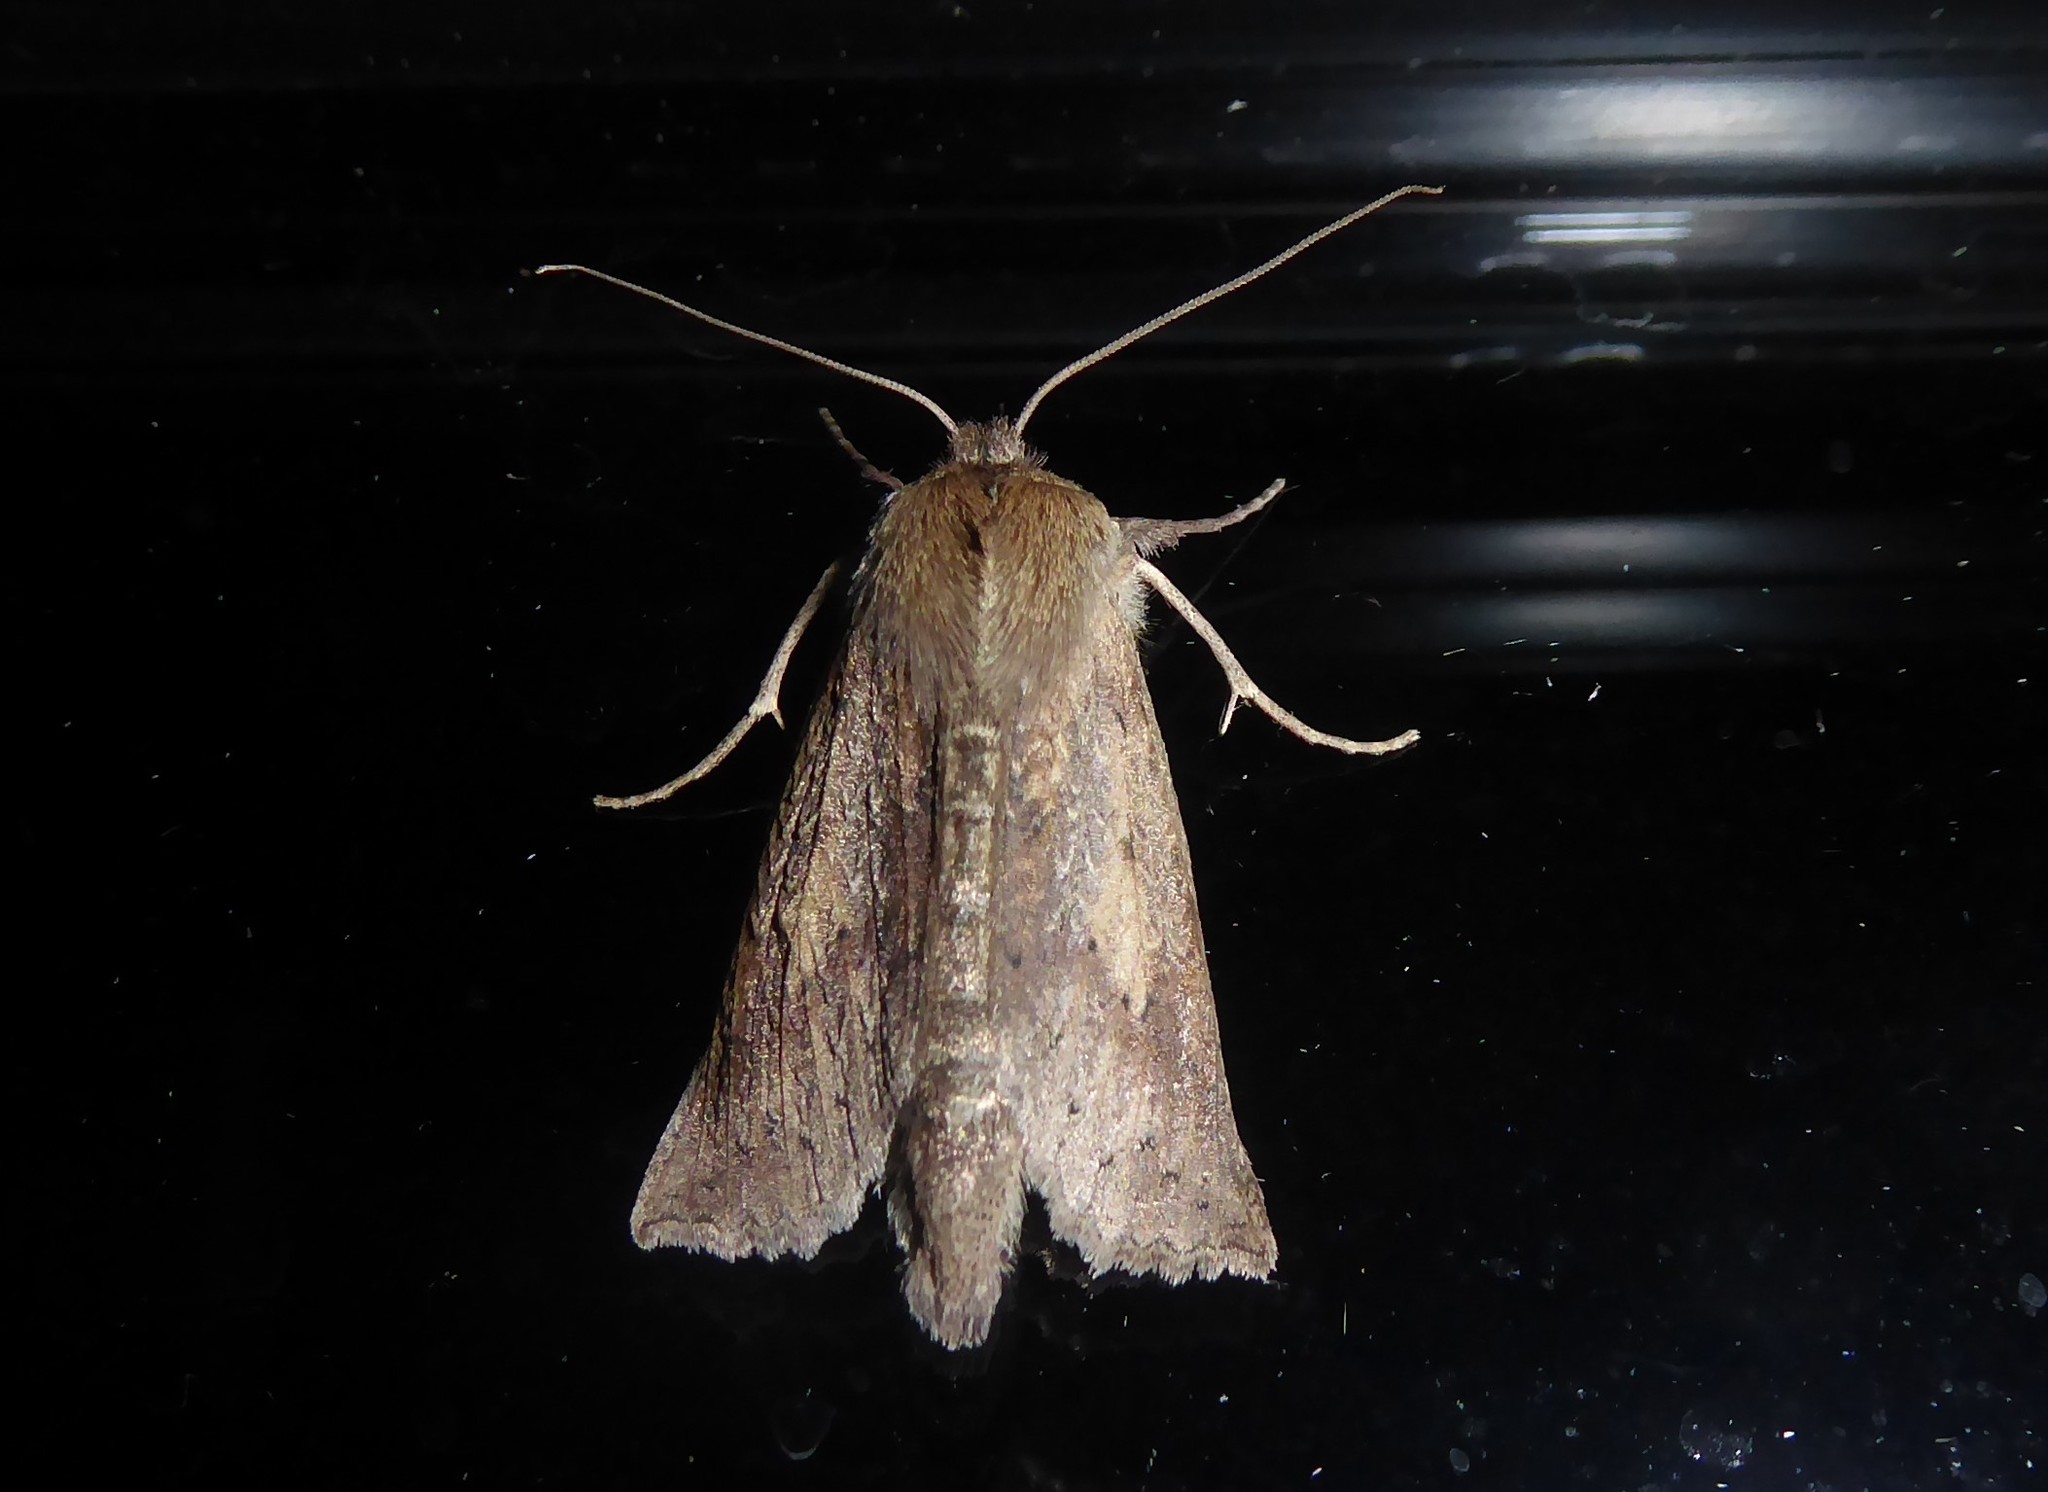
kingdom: Animalia
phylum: Arthropoda
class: Insecta
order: Lepidoptera
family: Geometridae
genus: Declana
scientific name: Declana leptomera
